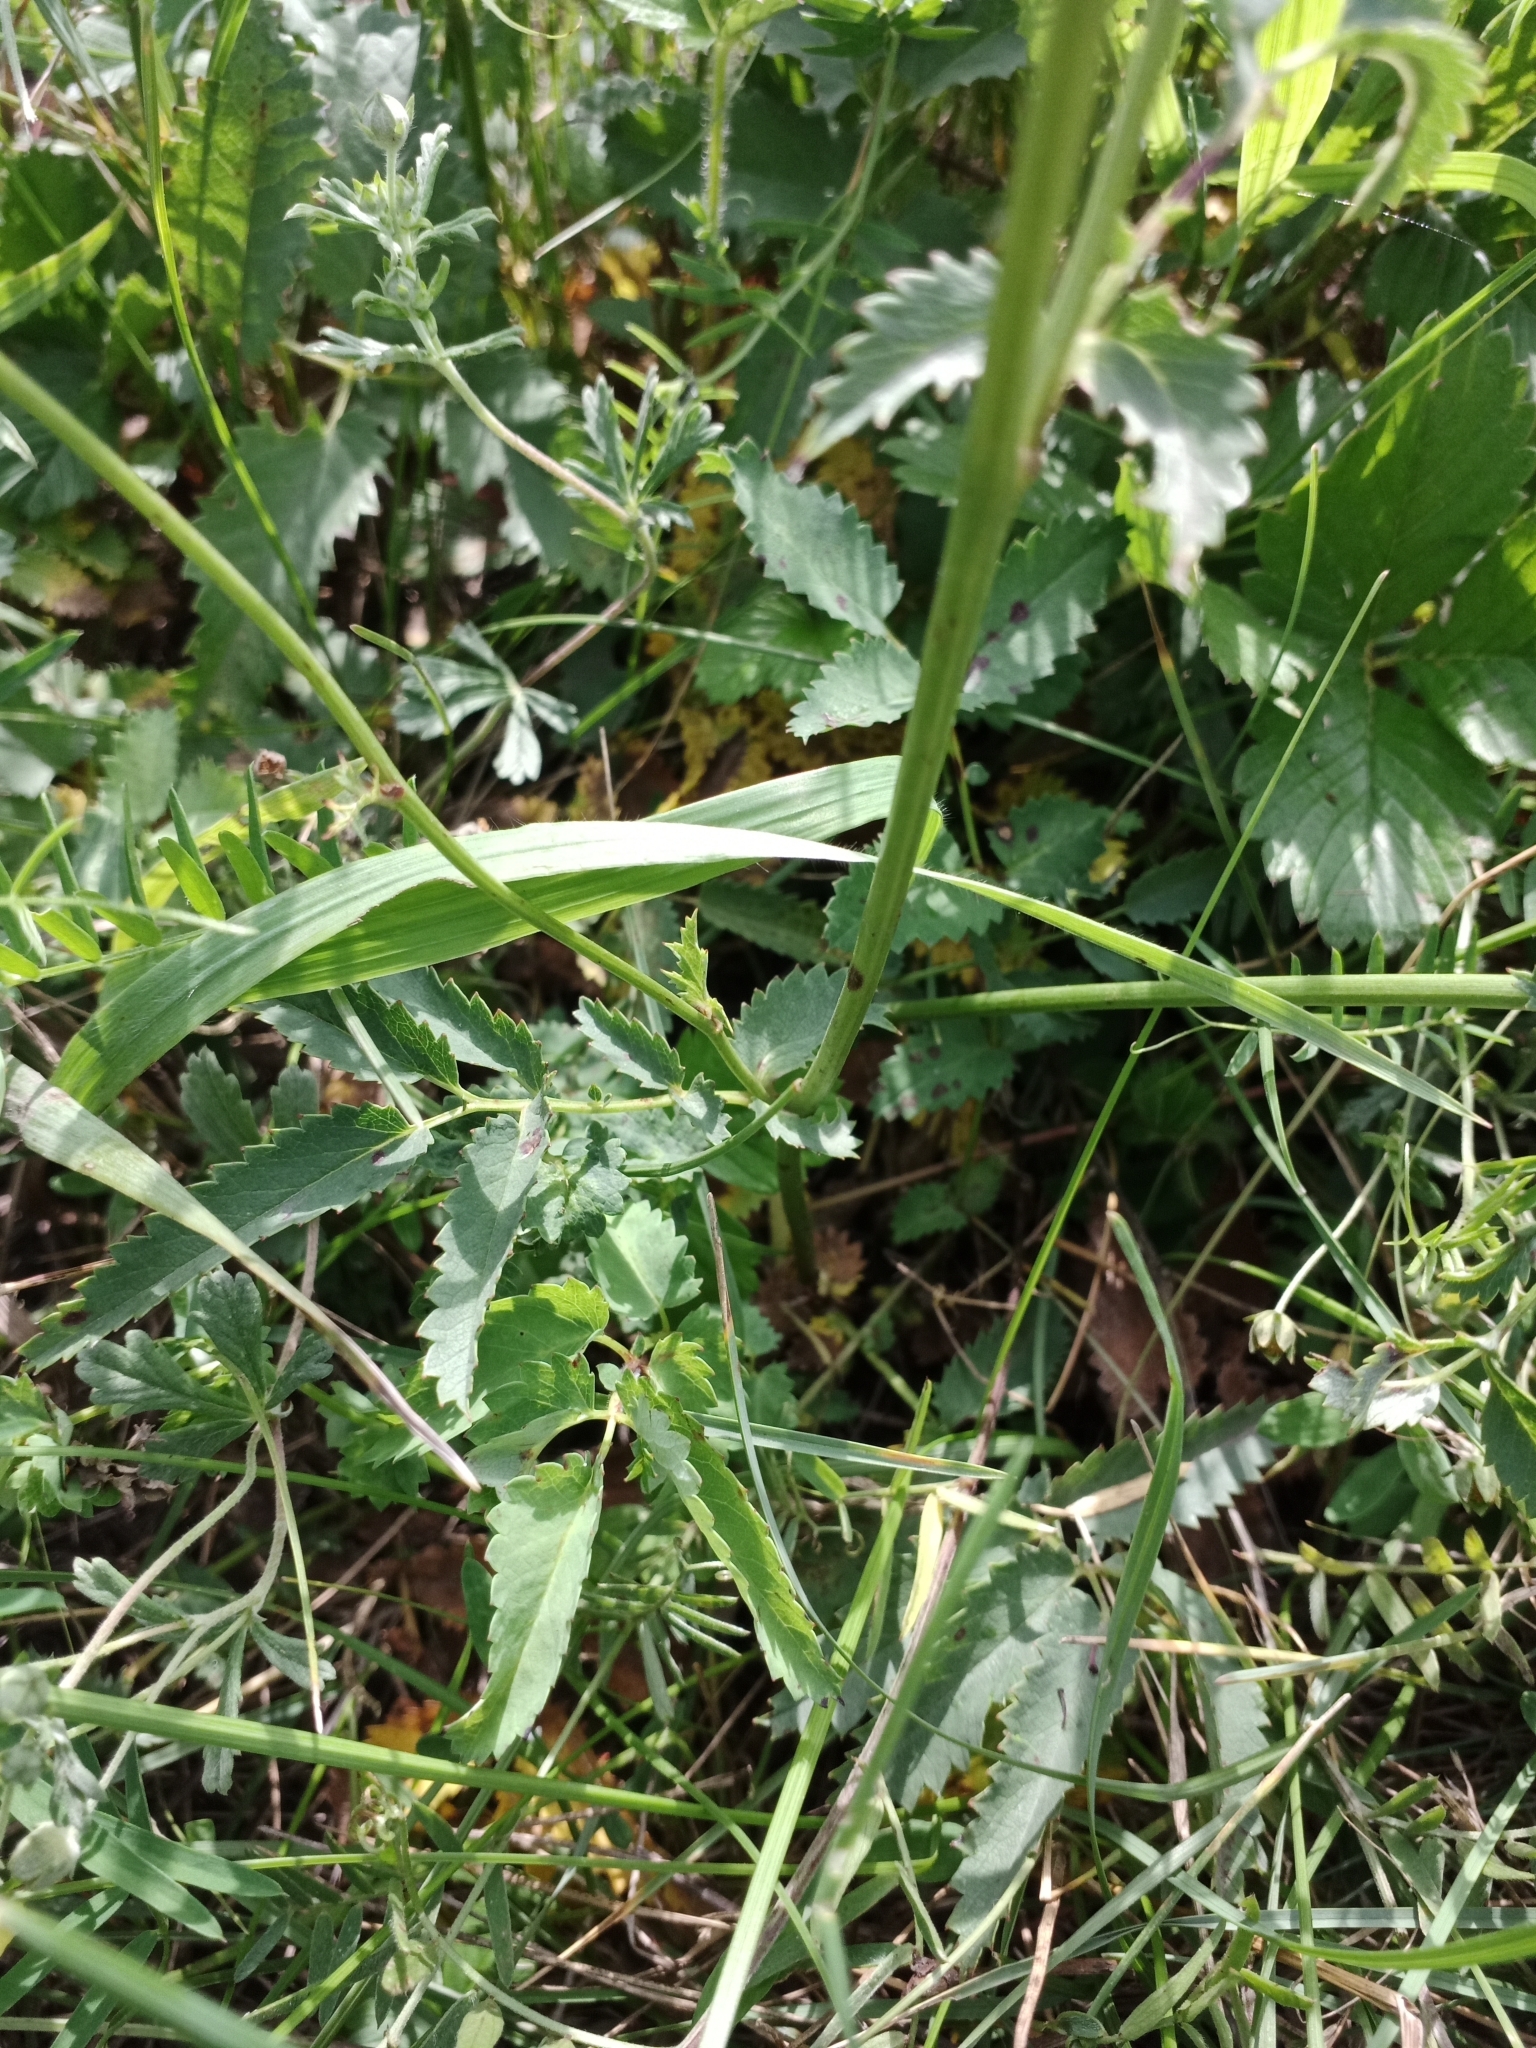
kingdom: Plantae
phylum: Tracheophyta
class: Magnoliopsida
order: Rosales
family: Rosaceae
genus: Sanguisorba
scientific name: Sanguisorba officinalis
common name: Great burnet
